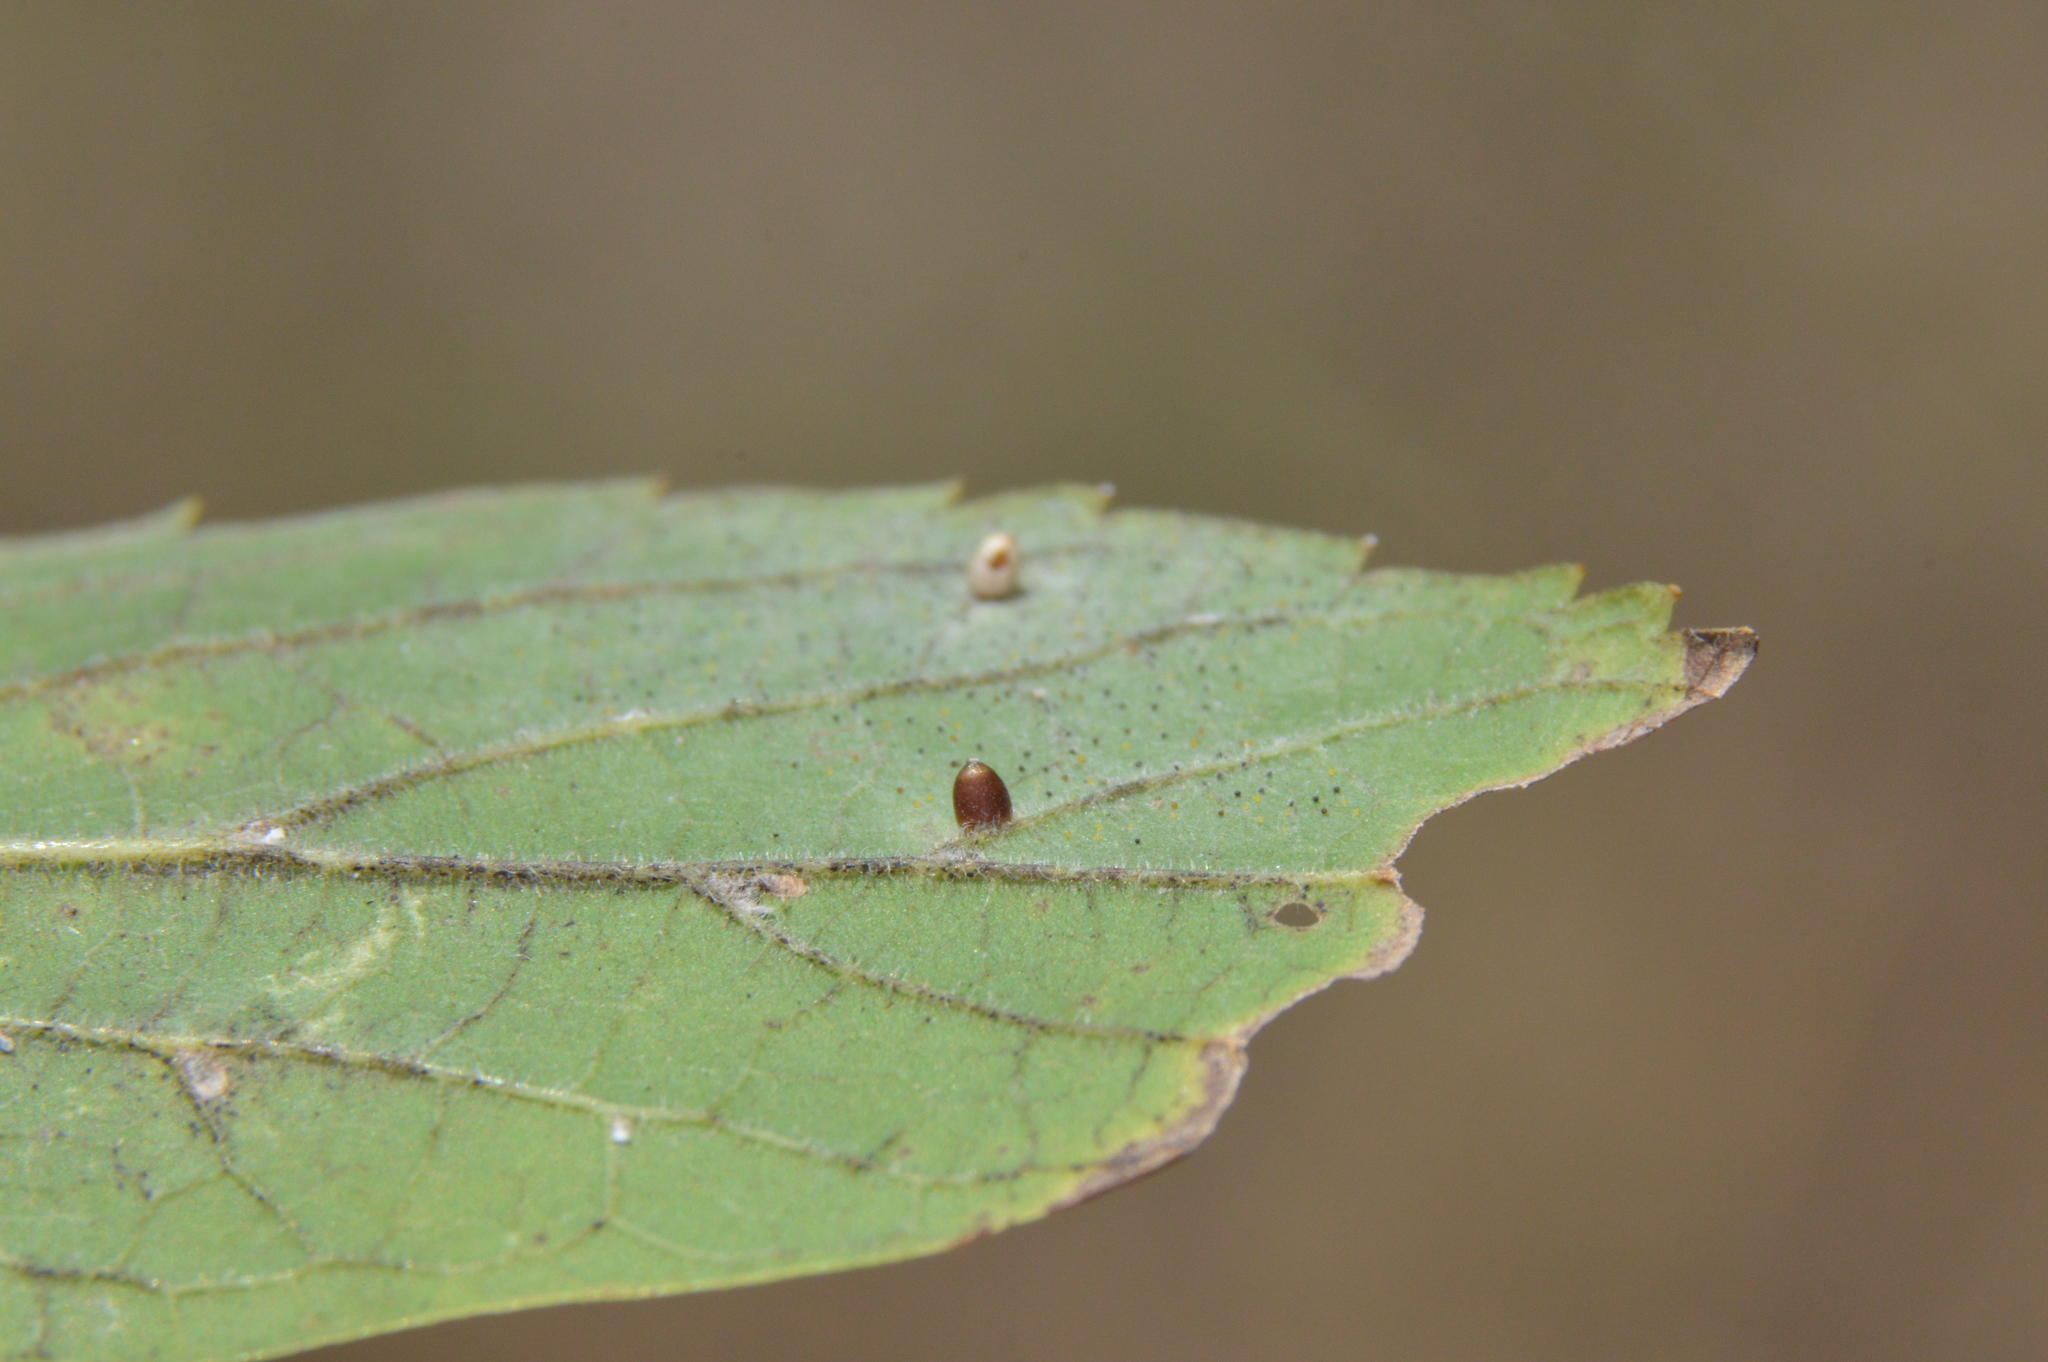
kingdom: Animalia
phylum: Arthropoda
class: Insecta
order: Diptera
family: Cecidomyiidae
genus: Celticecis
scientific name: Celticecis cupiformis
